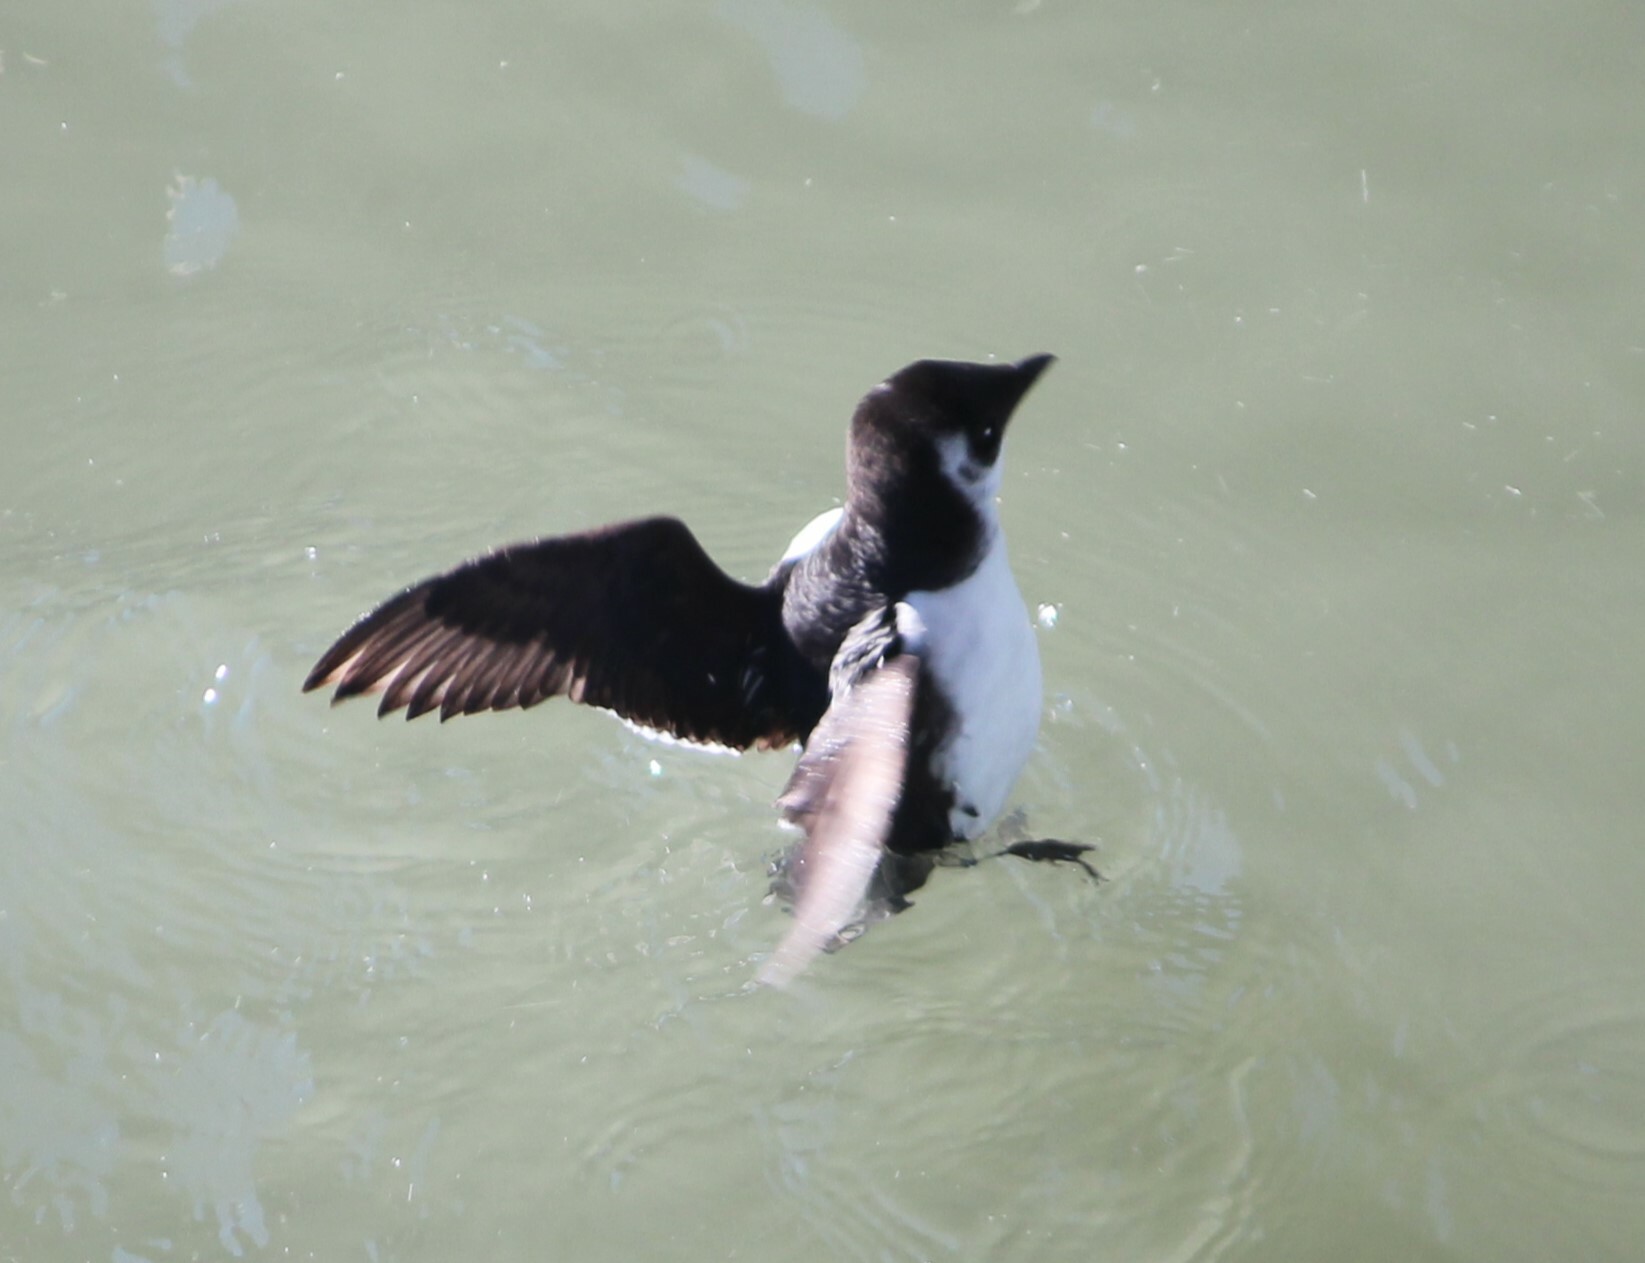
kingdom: Animalia
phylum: Chordata
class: Aves
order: Charadriiformes
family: Alcidae
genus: Alle
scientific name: Alle alle
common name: Little auk
